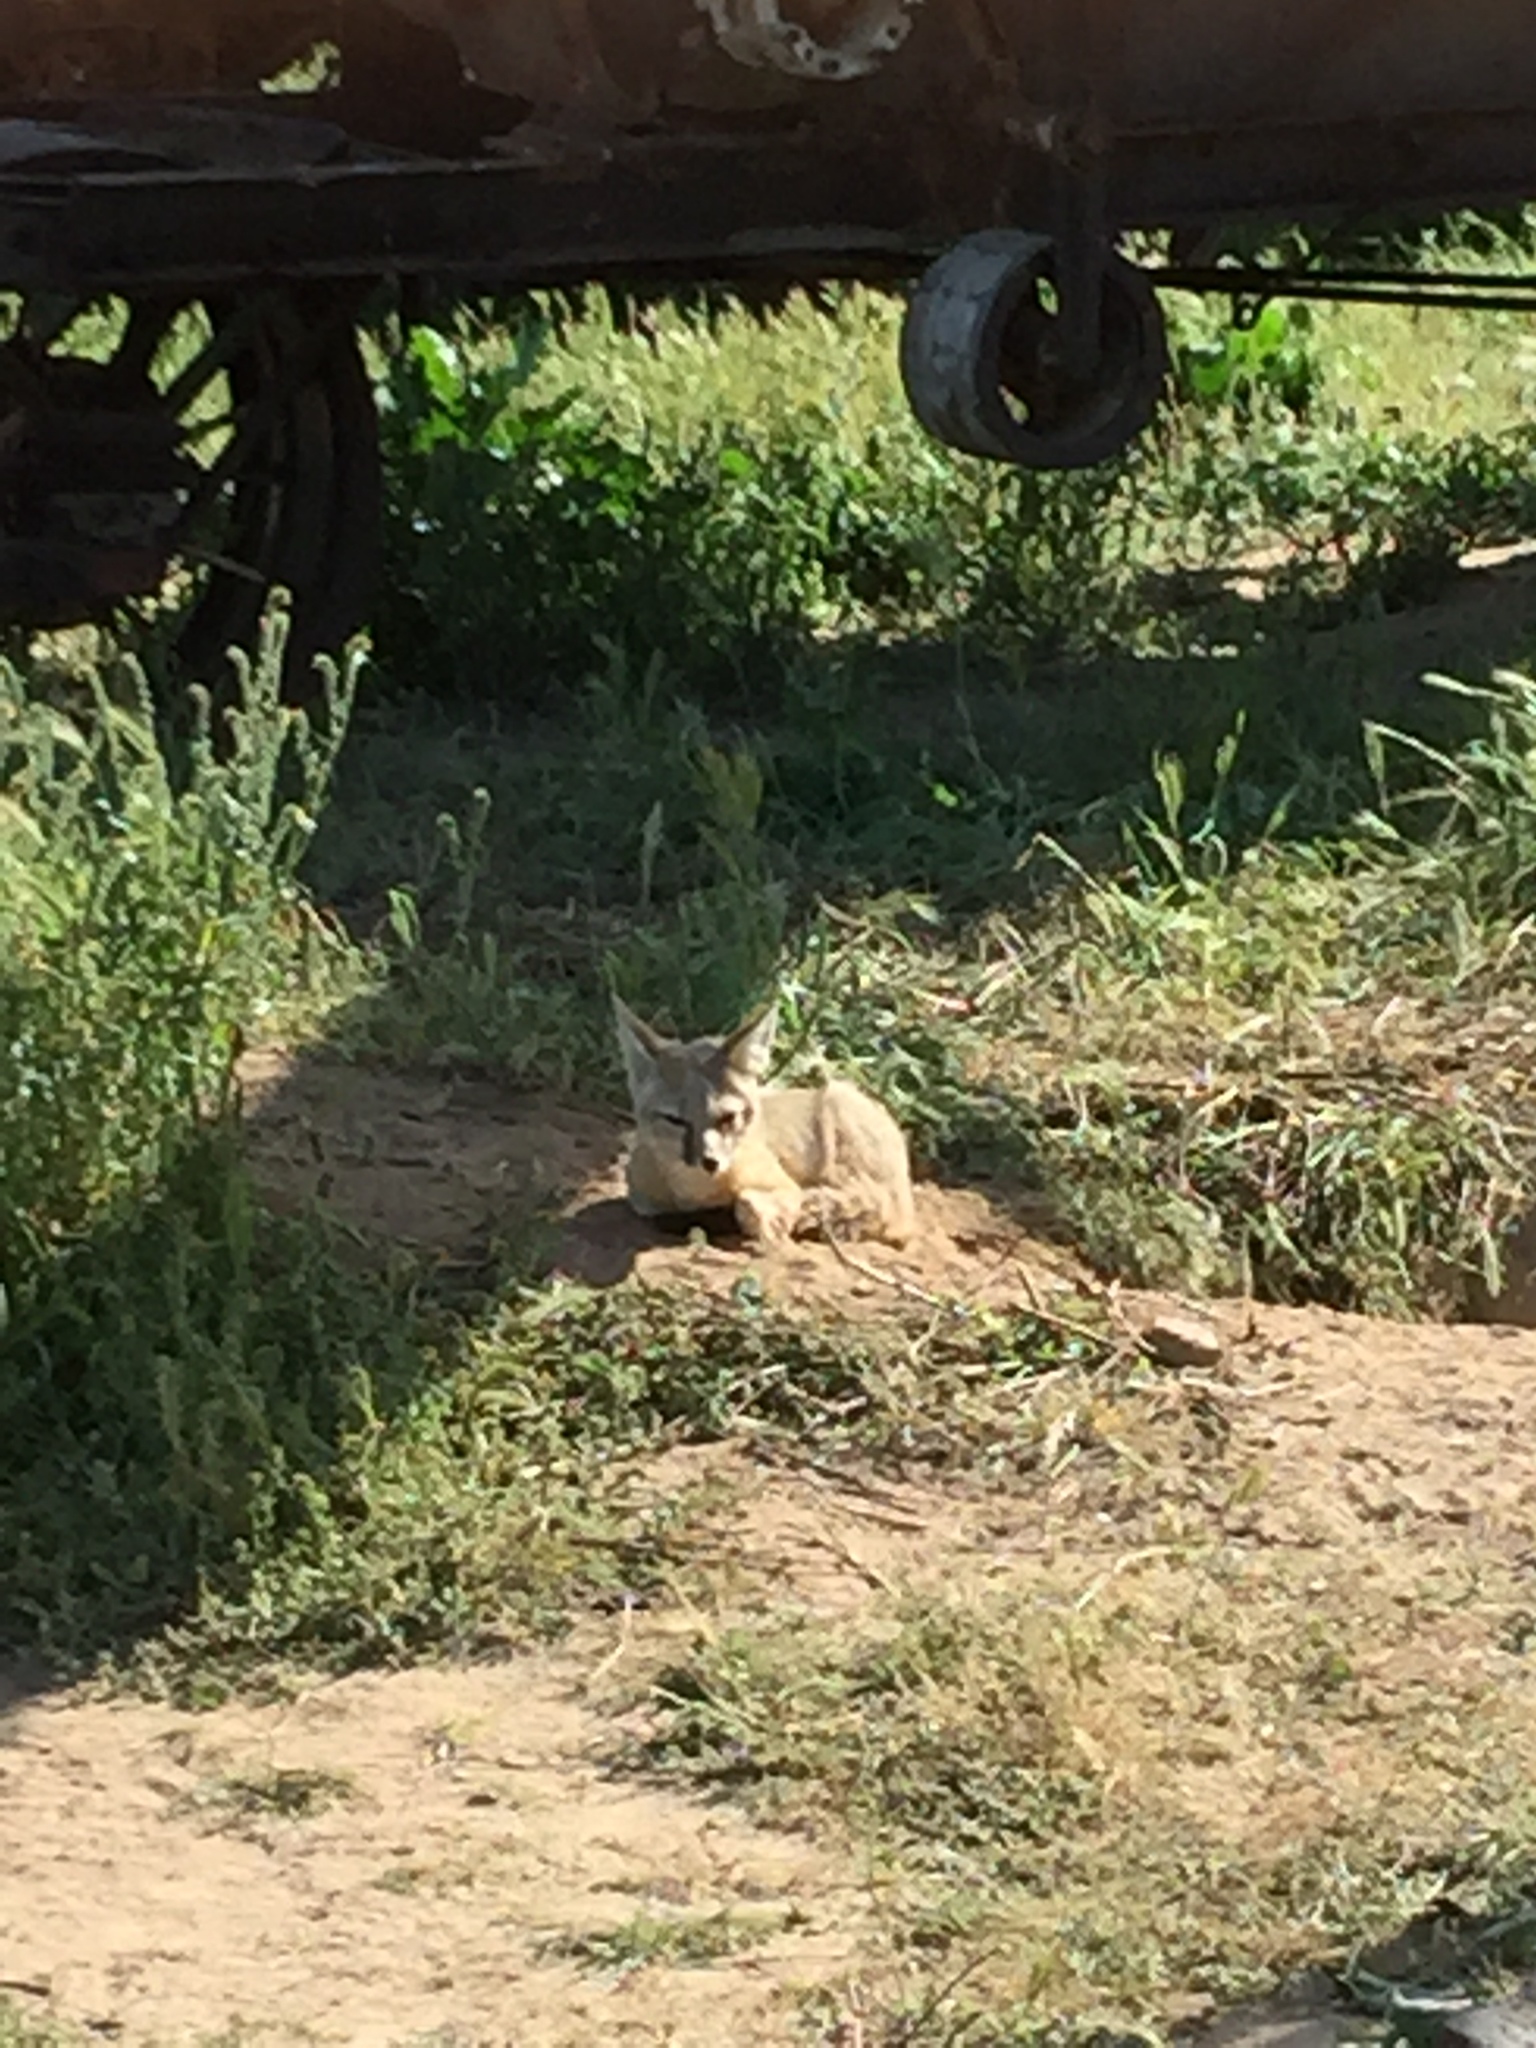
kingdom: Animalia
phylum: Chordata
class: Mammalia
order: Carnivora
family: Canidae
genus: Vulpes
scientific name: Vulpes macrotis
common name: Kit fox
